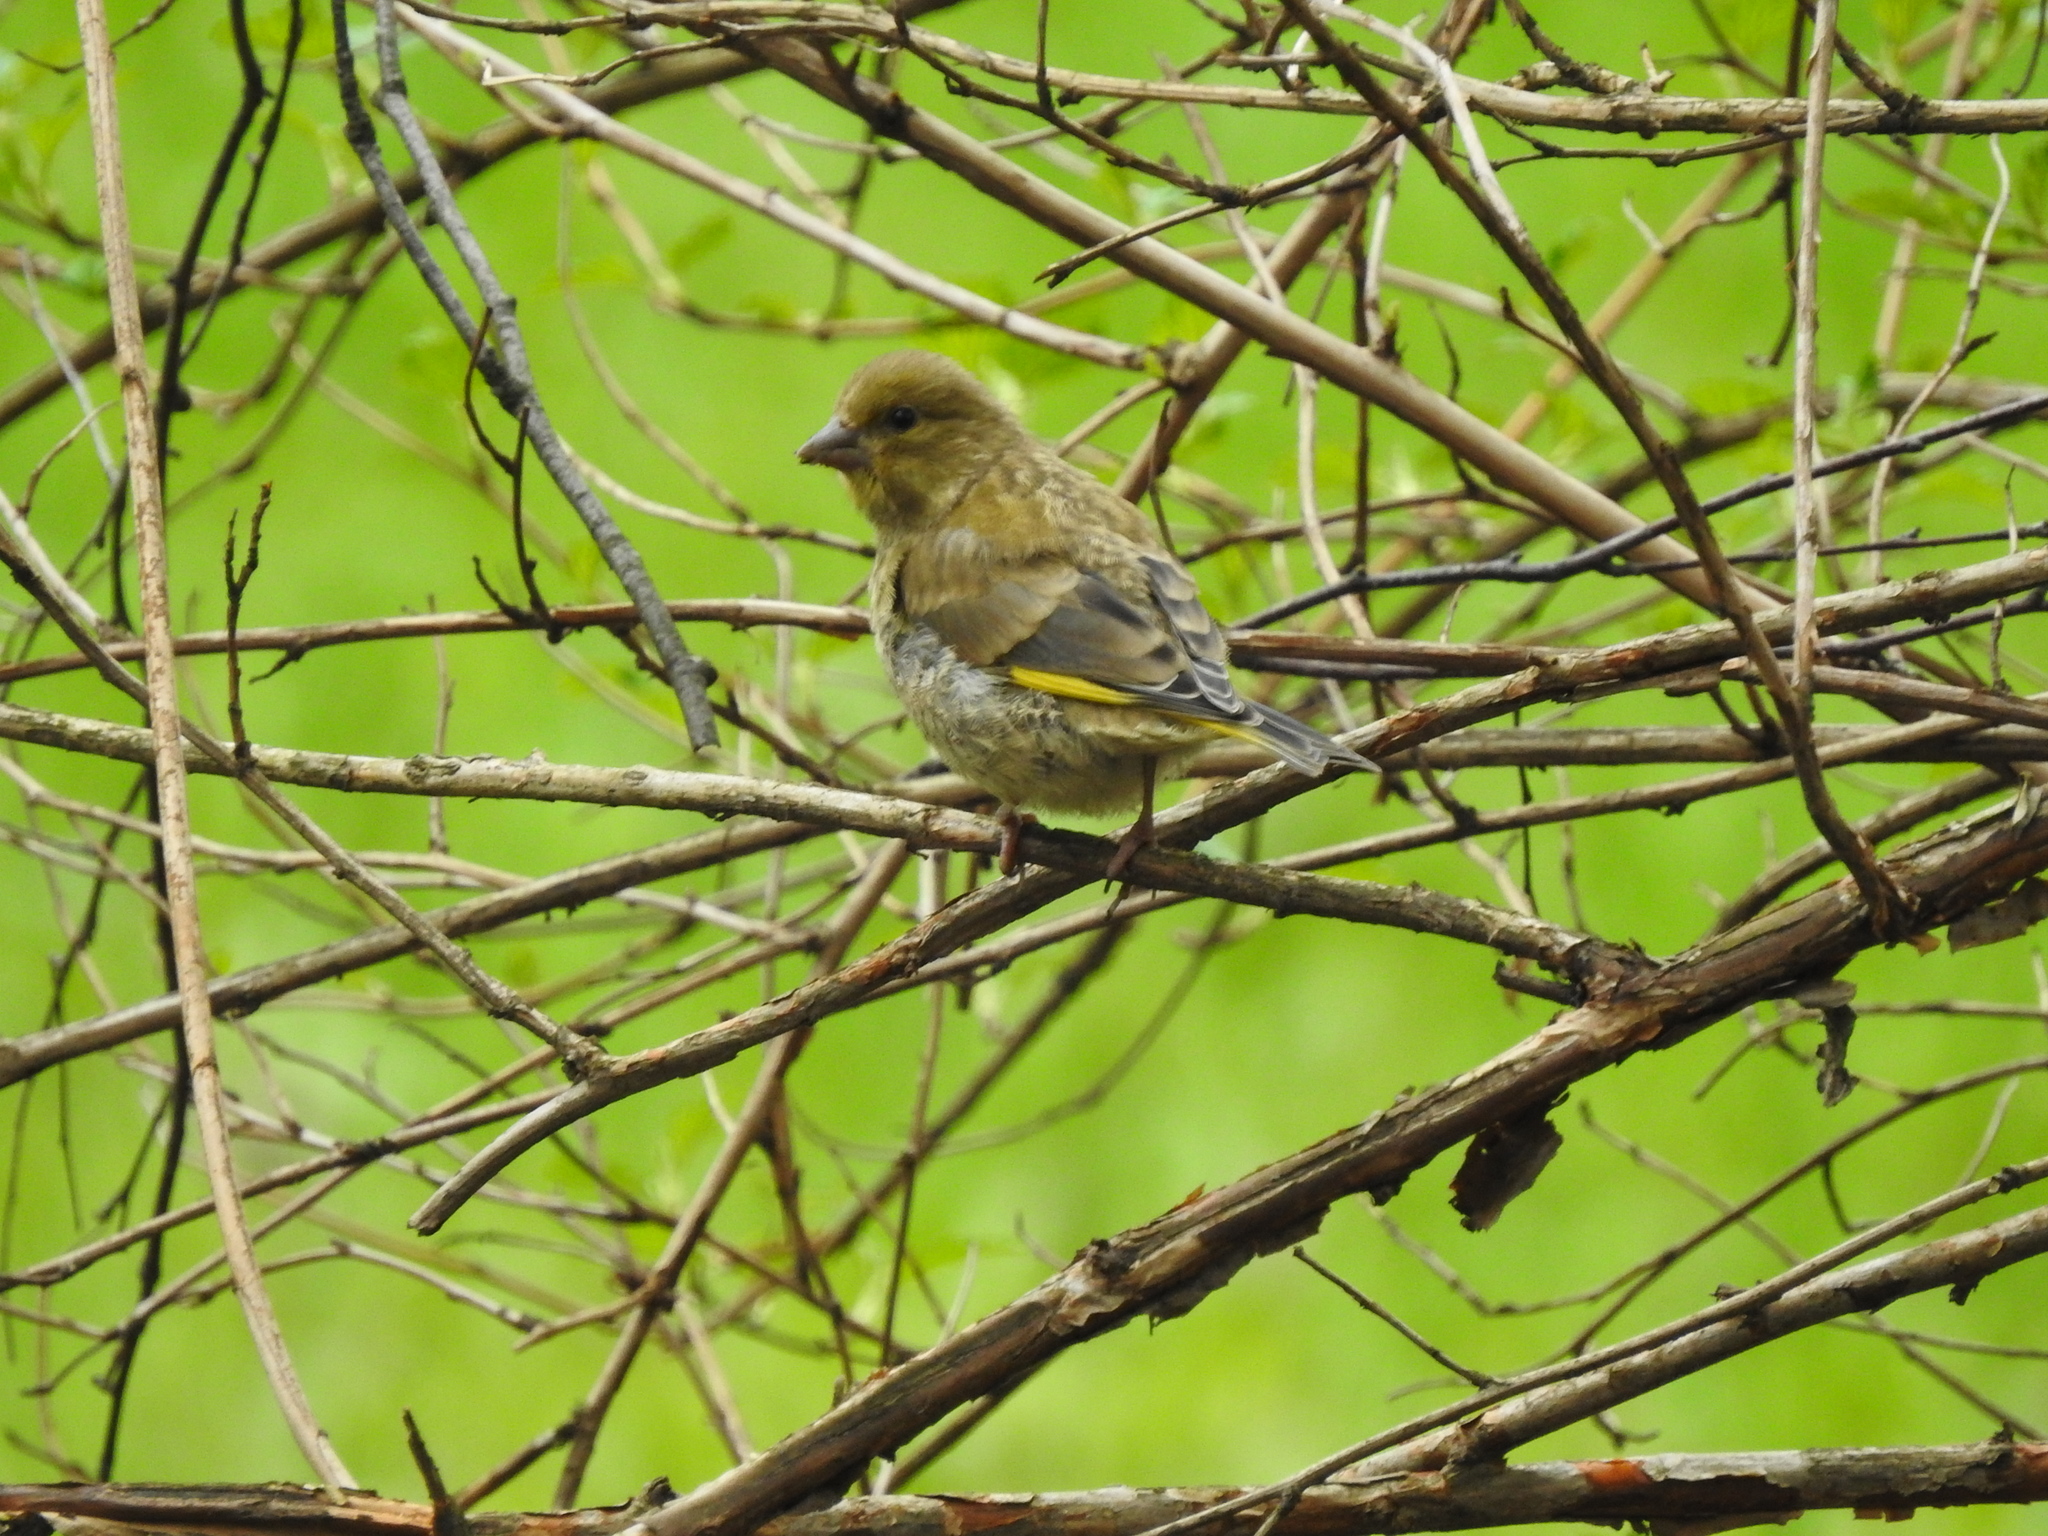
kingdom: Plantae
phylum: Tracheophyta
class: Liliopsida
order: Poales
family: Poaceae
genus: Chloris
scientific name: Chloris chloris
